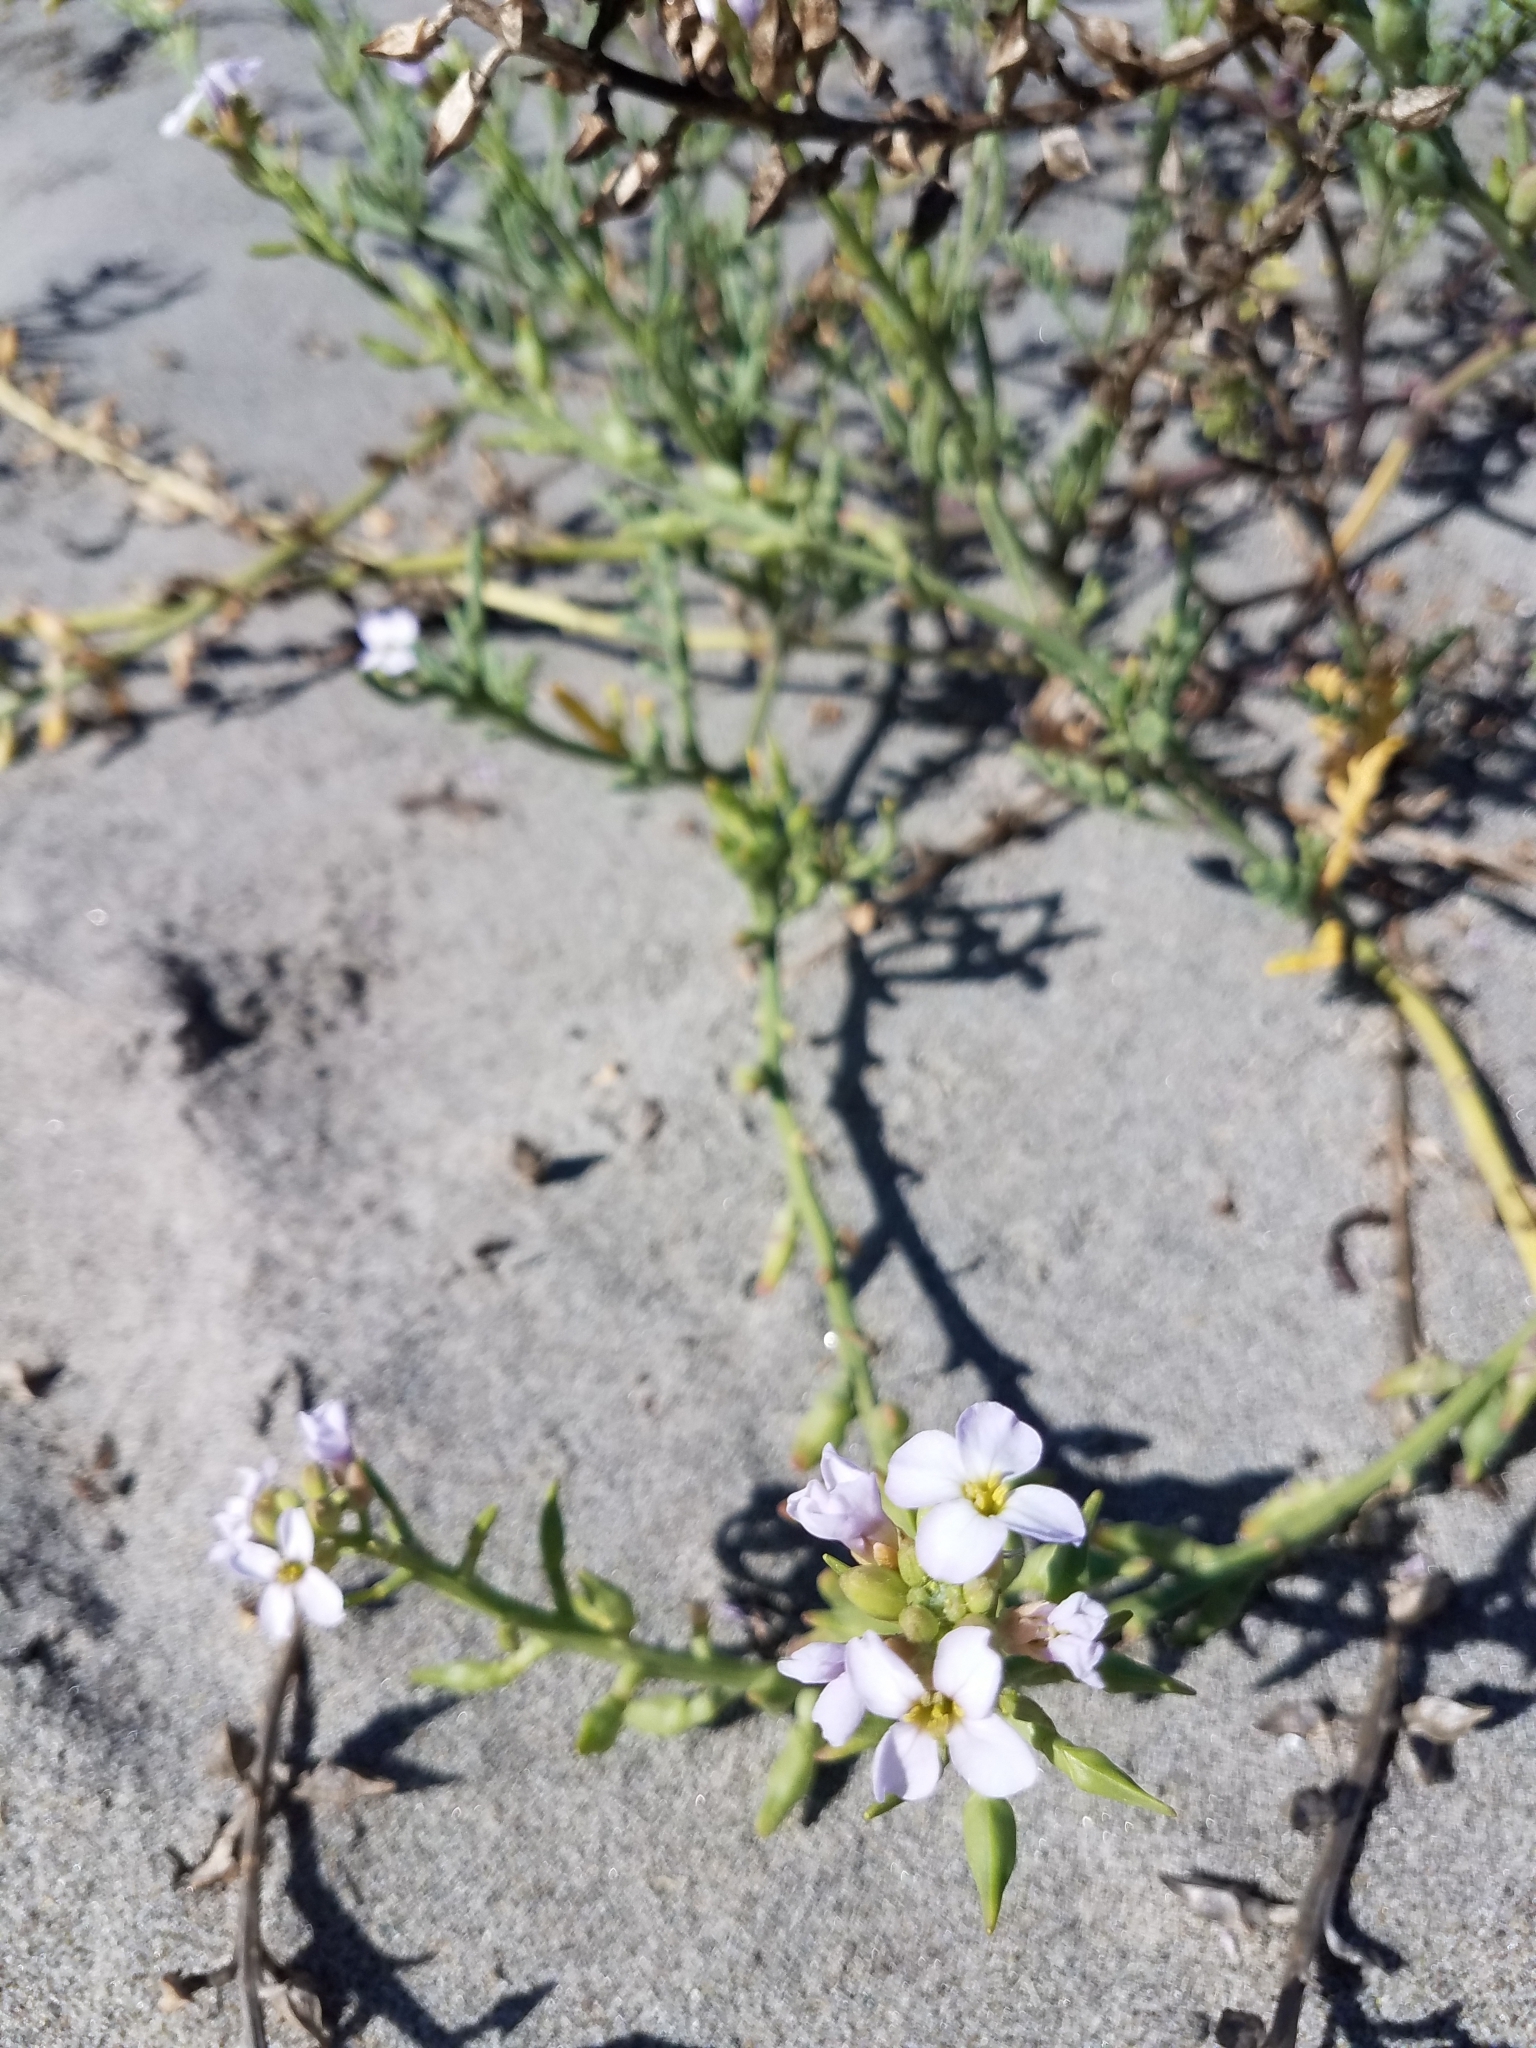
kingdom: Plantae
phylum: Tracheophyta
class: Magnoliopsida
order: Brassicales
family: Brassicaceae
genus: Cakile
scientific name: Cakile maritima
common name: Sea rocket
